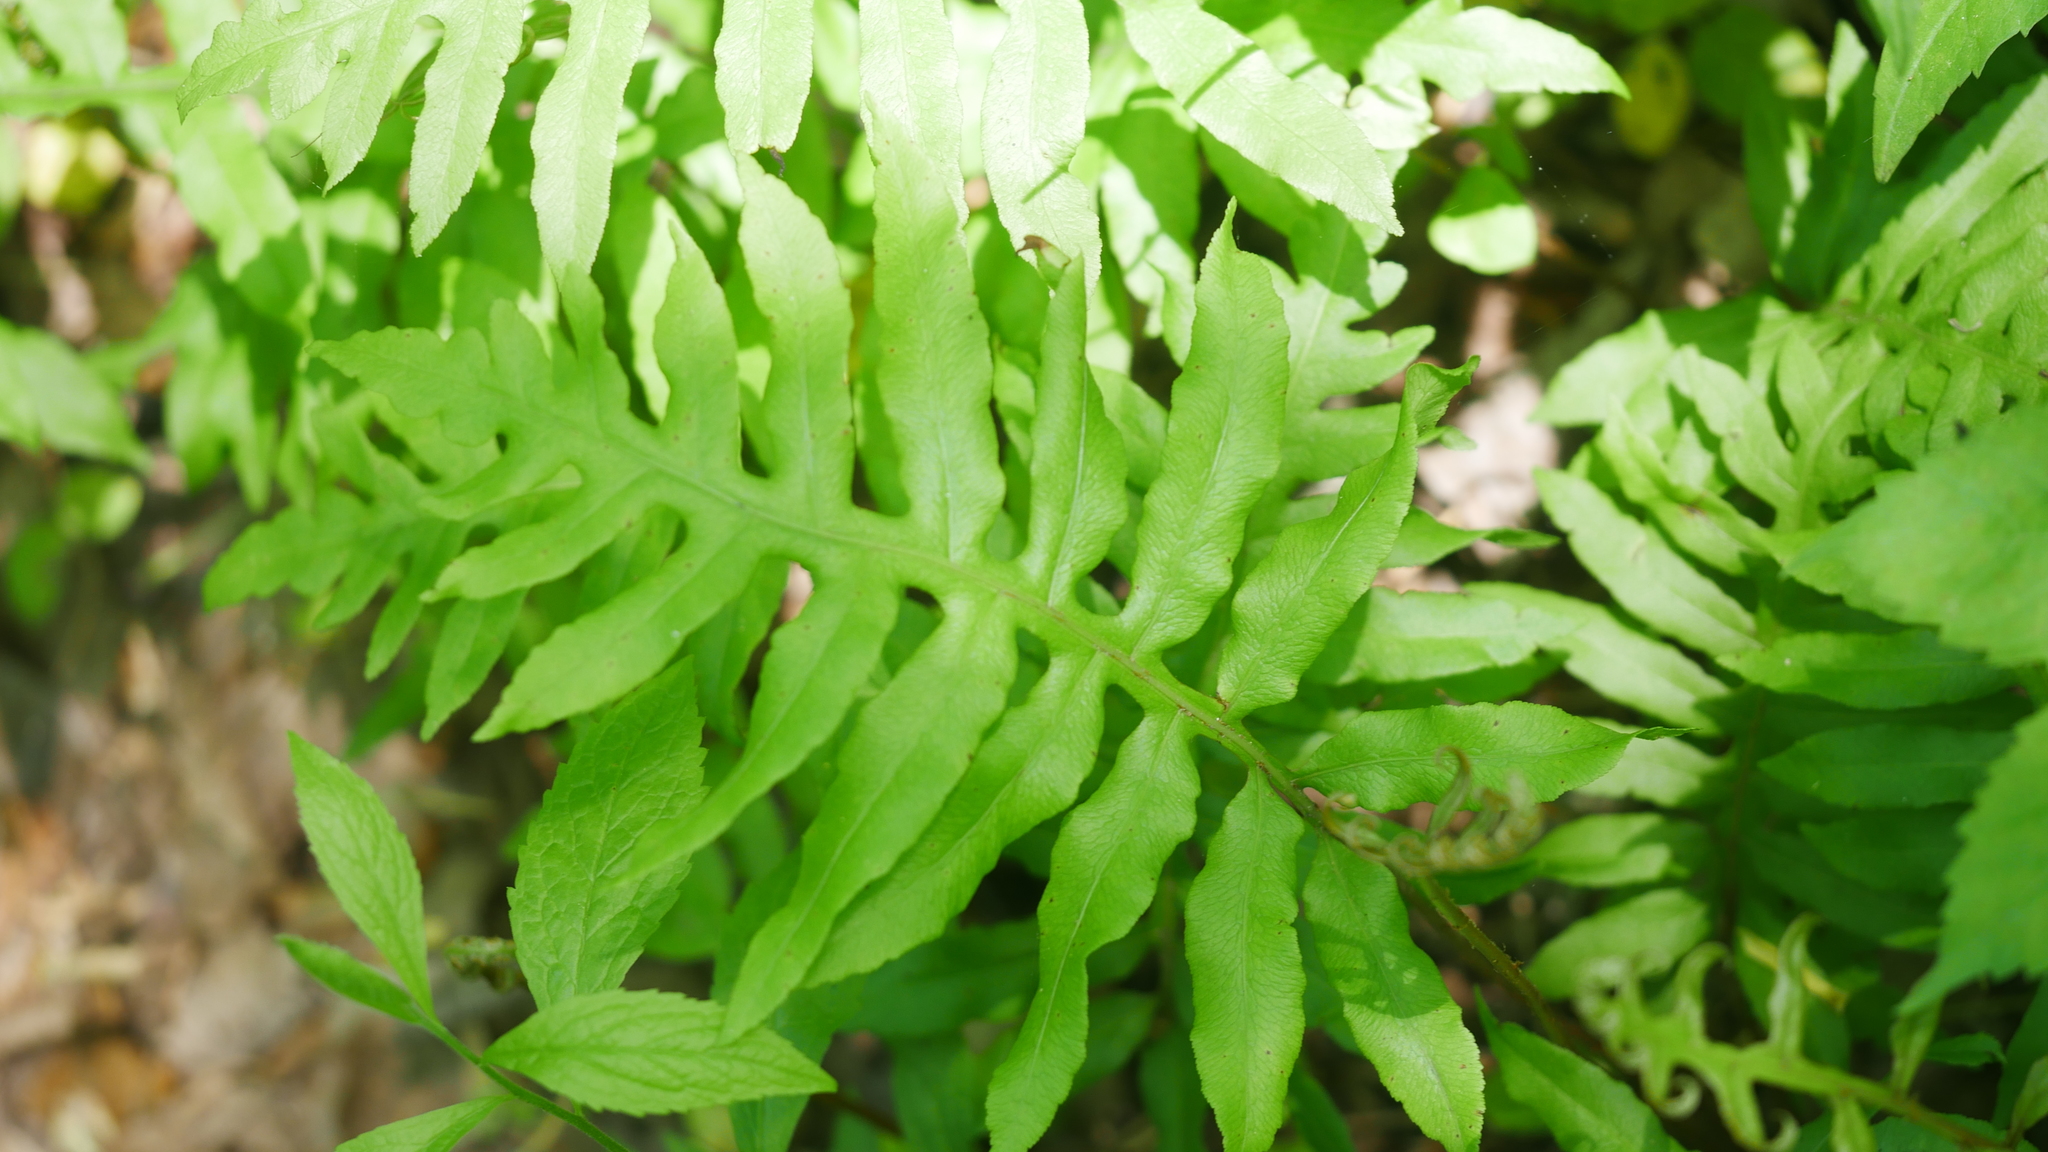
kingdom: Plantae
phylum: Tracheophyta
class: Polypodiopsida
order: Polypodiales
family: Blechnaceae
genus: Lorinseria
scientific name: Lorinseria areolata
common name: Dwarf chain fern
